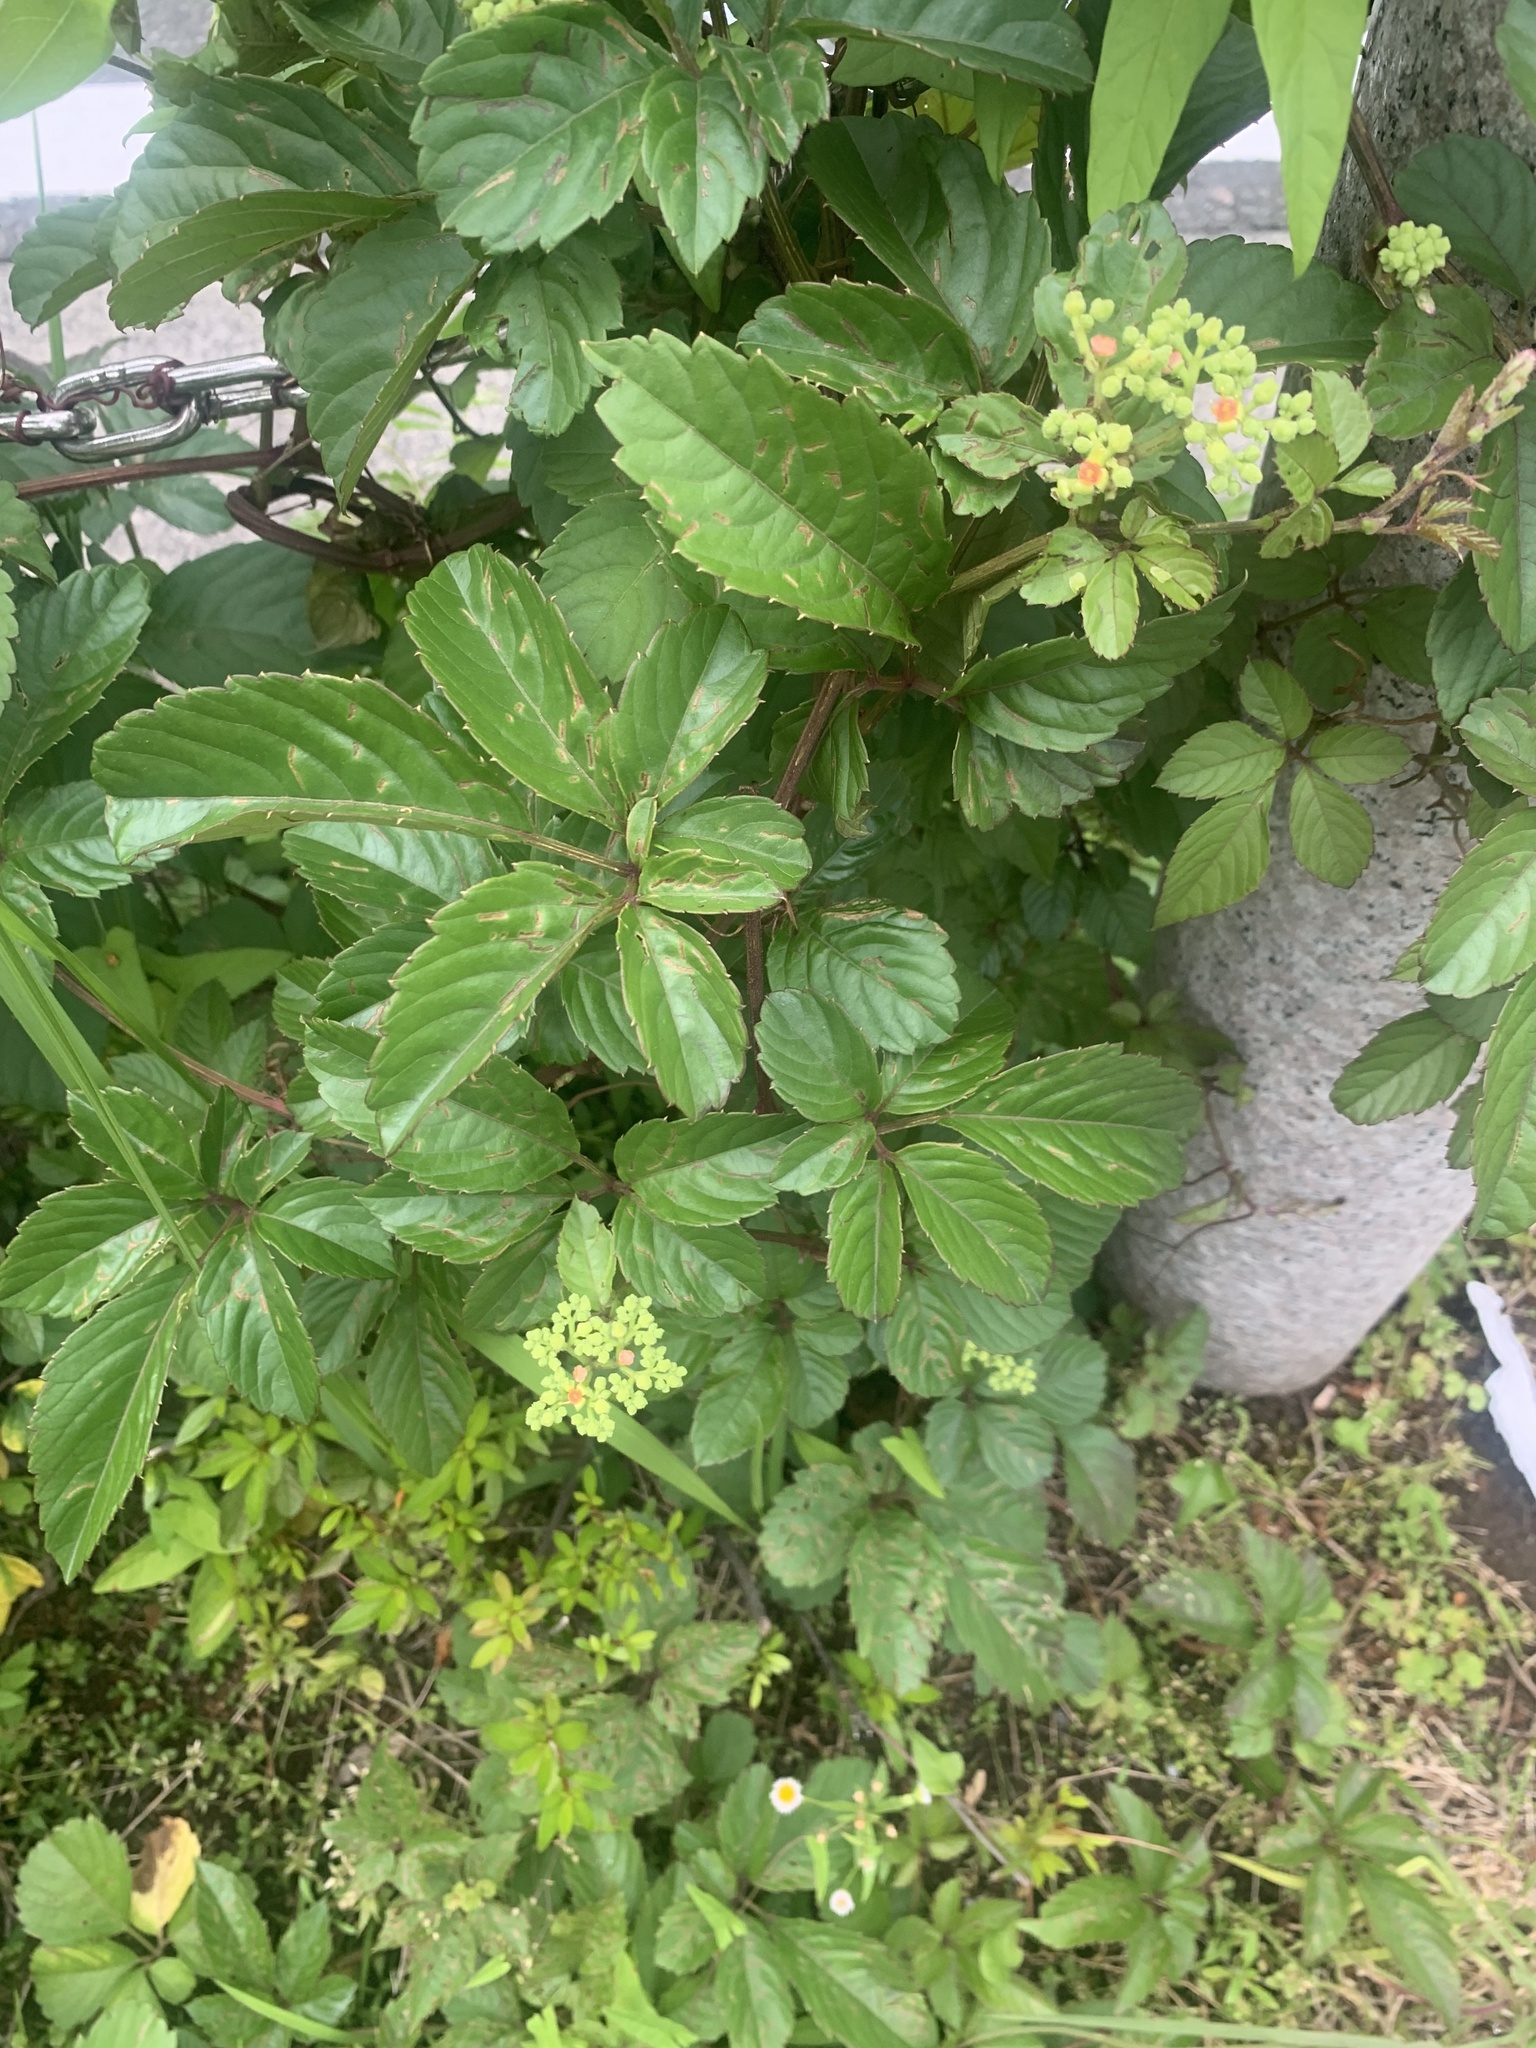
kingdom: Plantae
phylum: Tracheophyta
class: Magnoliopsida
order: Vitales
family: Vitaceae
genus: Causonis
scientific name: Causonis japonica
